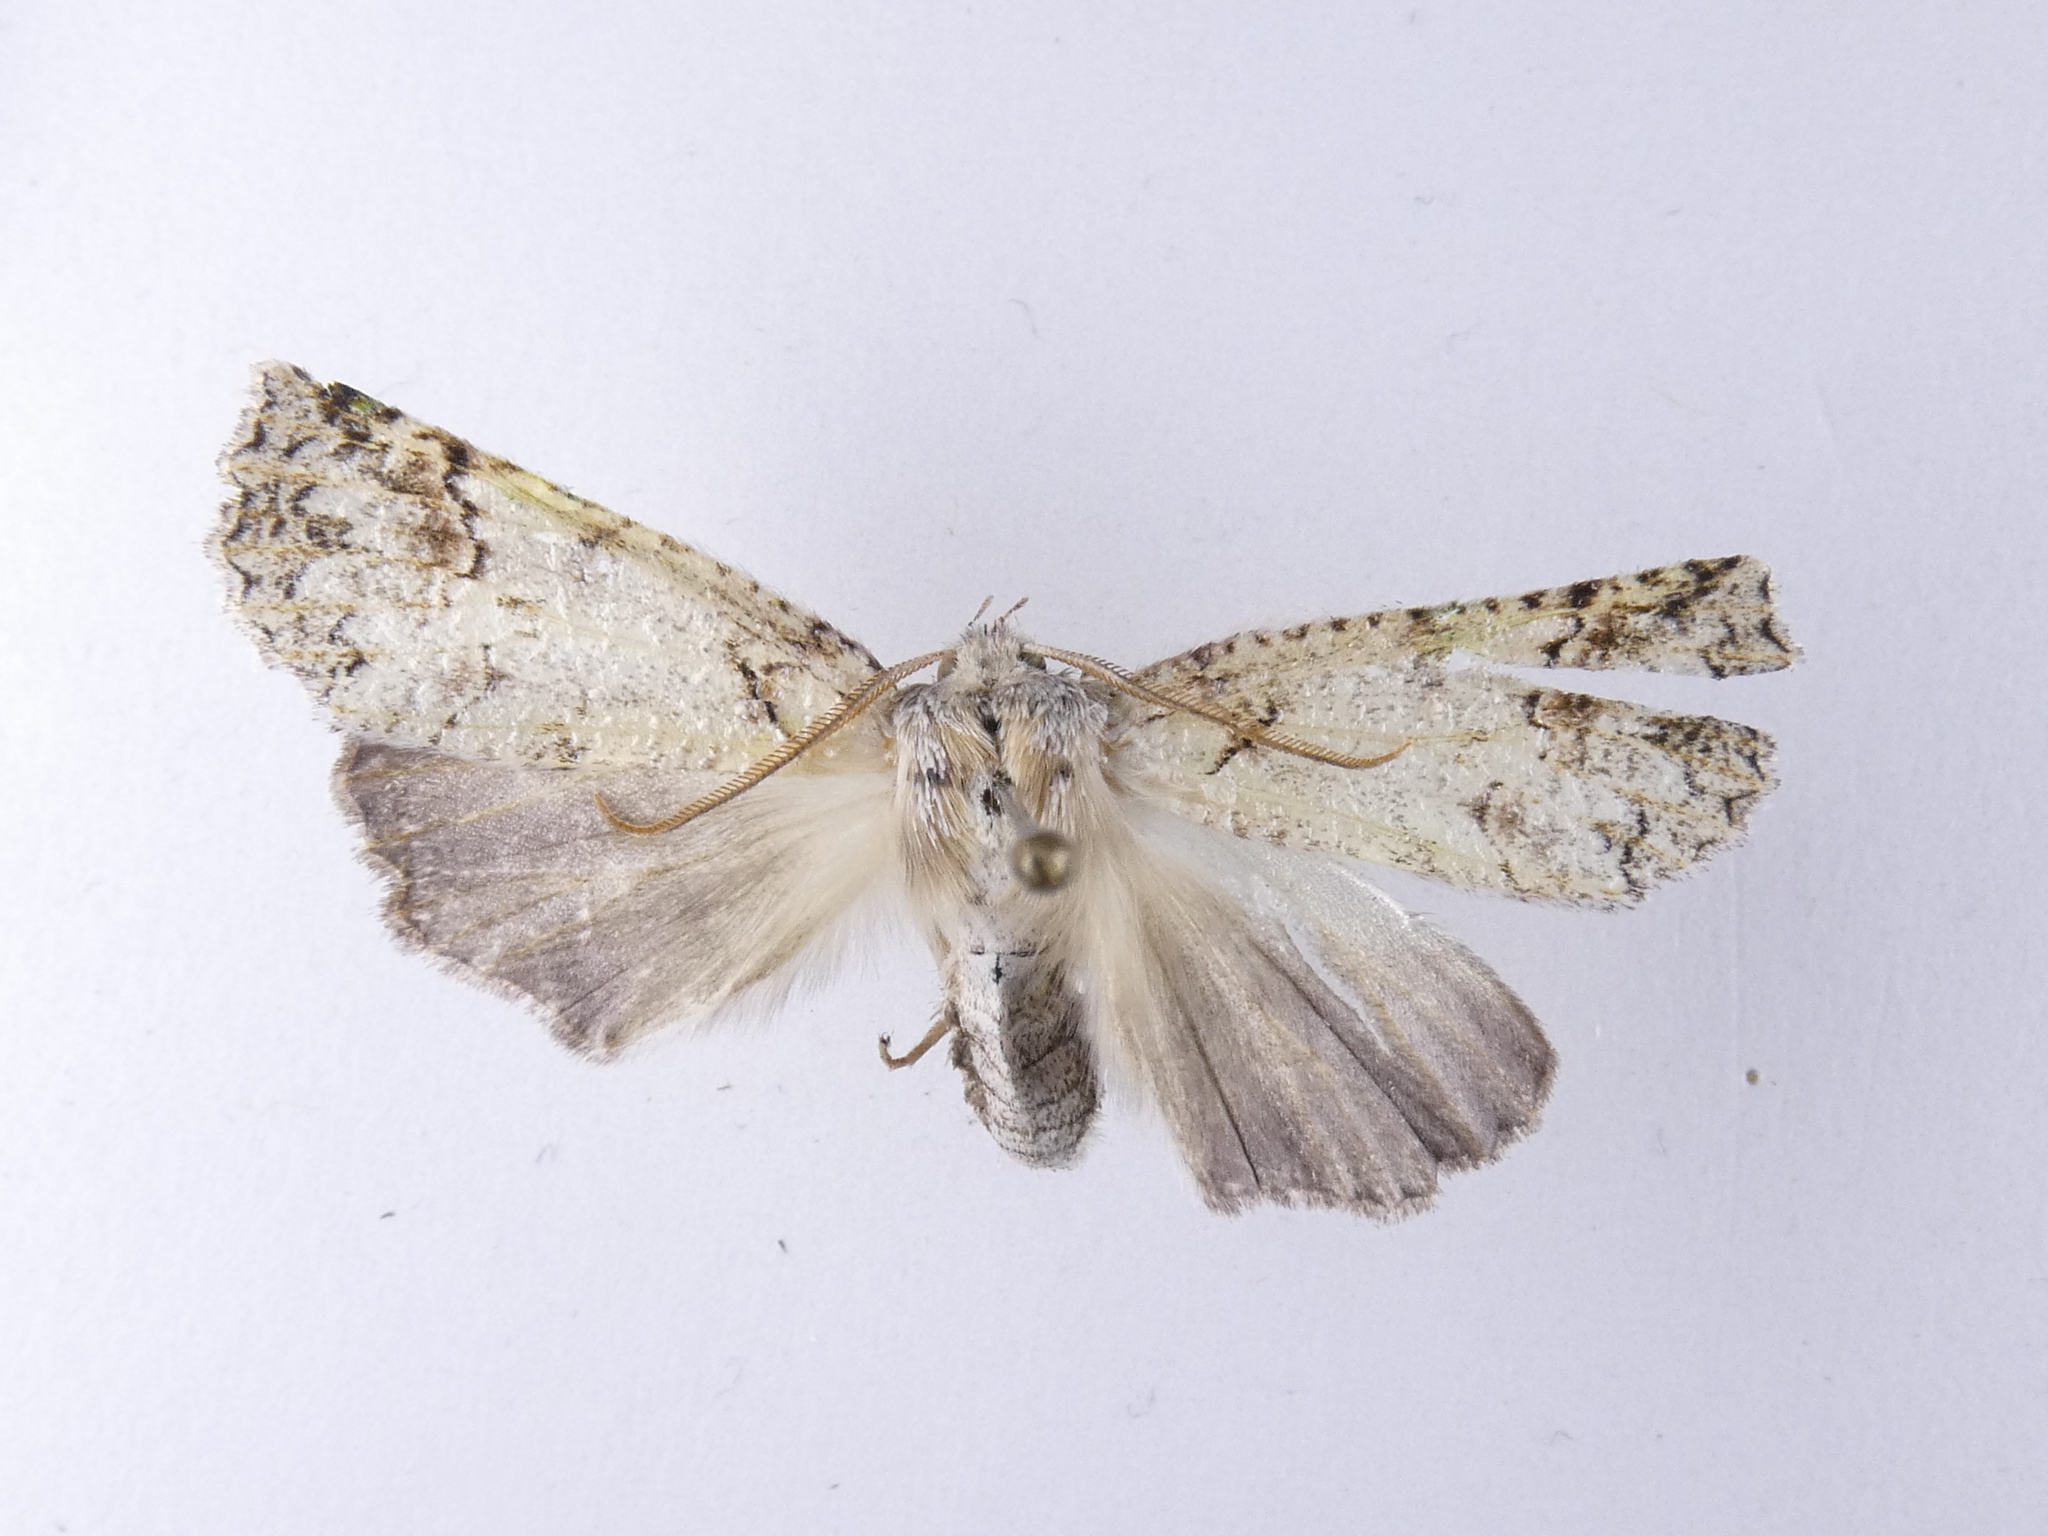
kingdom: Animalia
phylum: Arthropoda
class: Insecta
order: Lepidoptera
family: Geometridae
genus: Declana
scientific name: Declana floccosa
